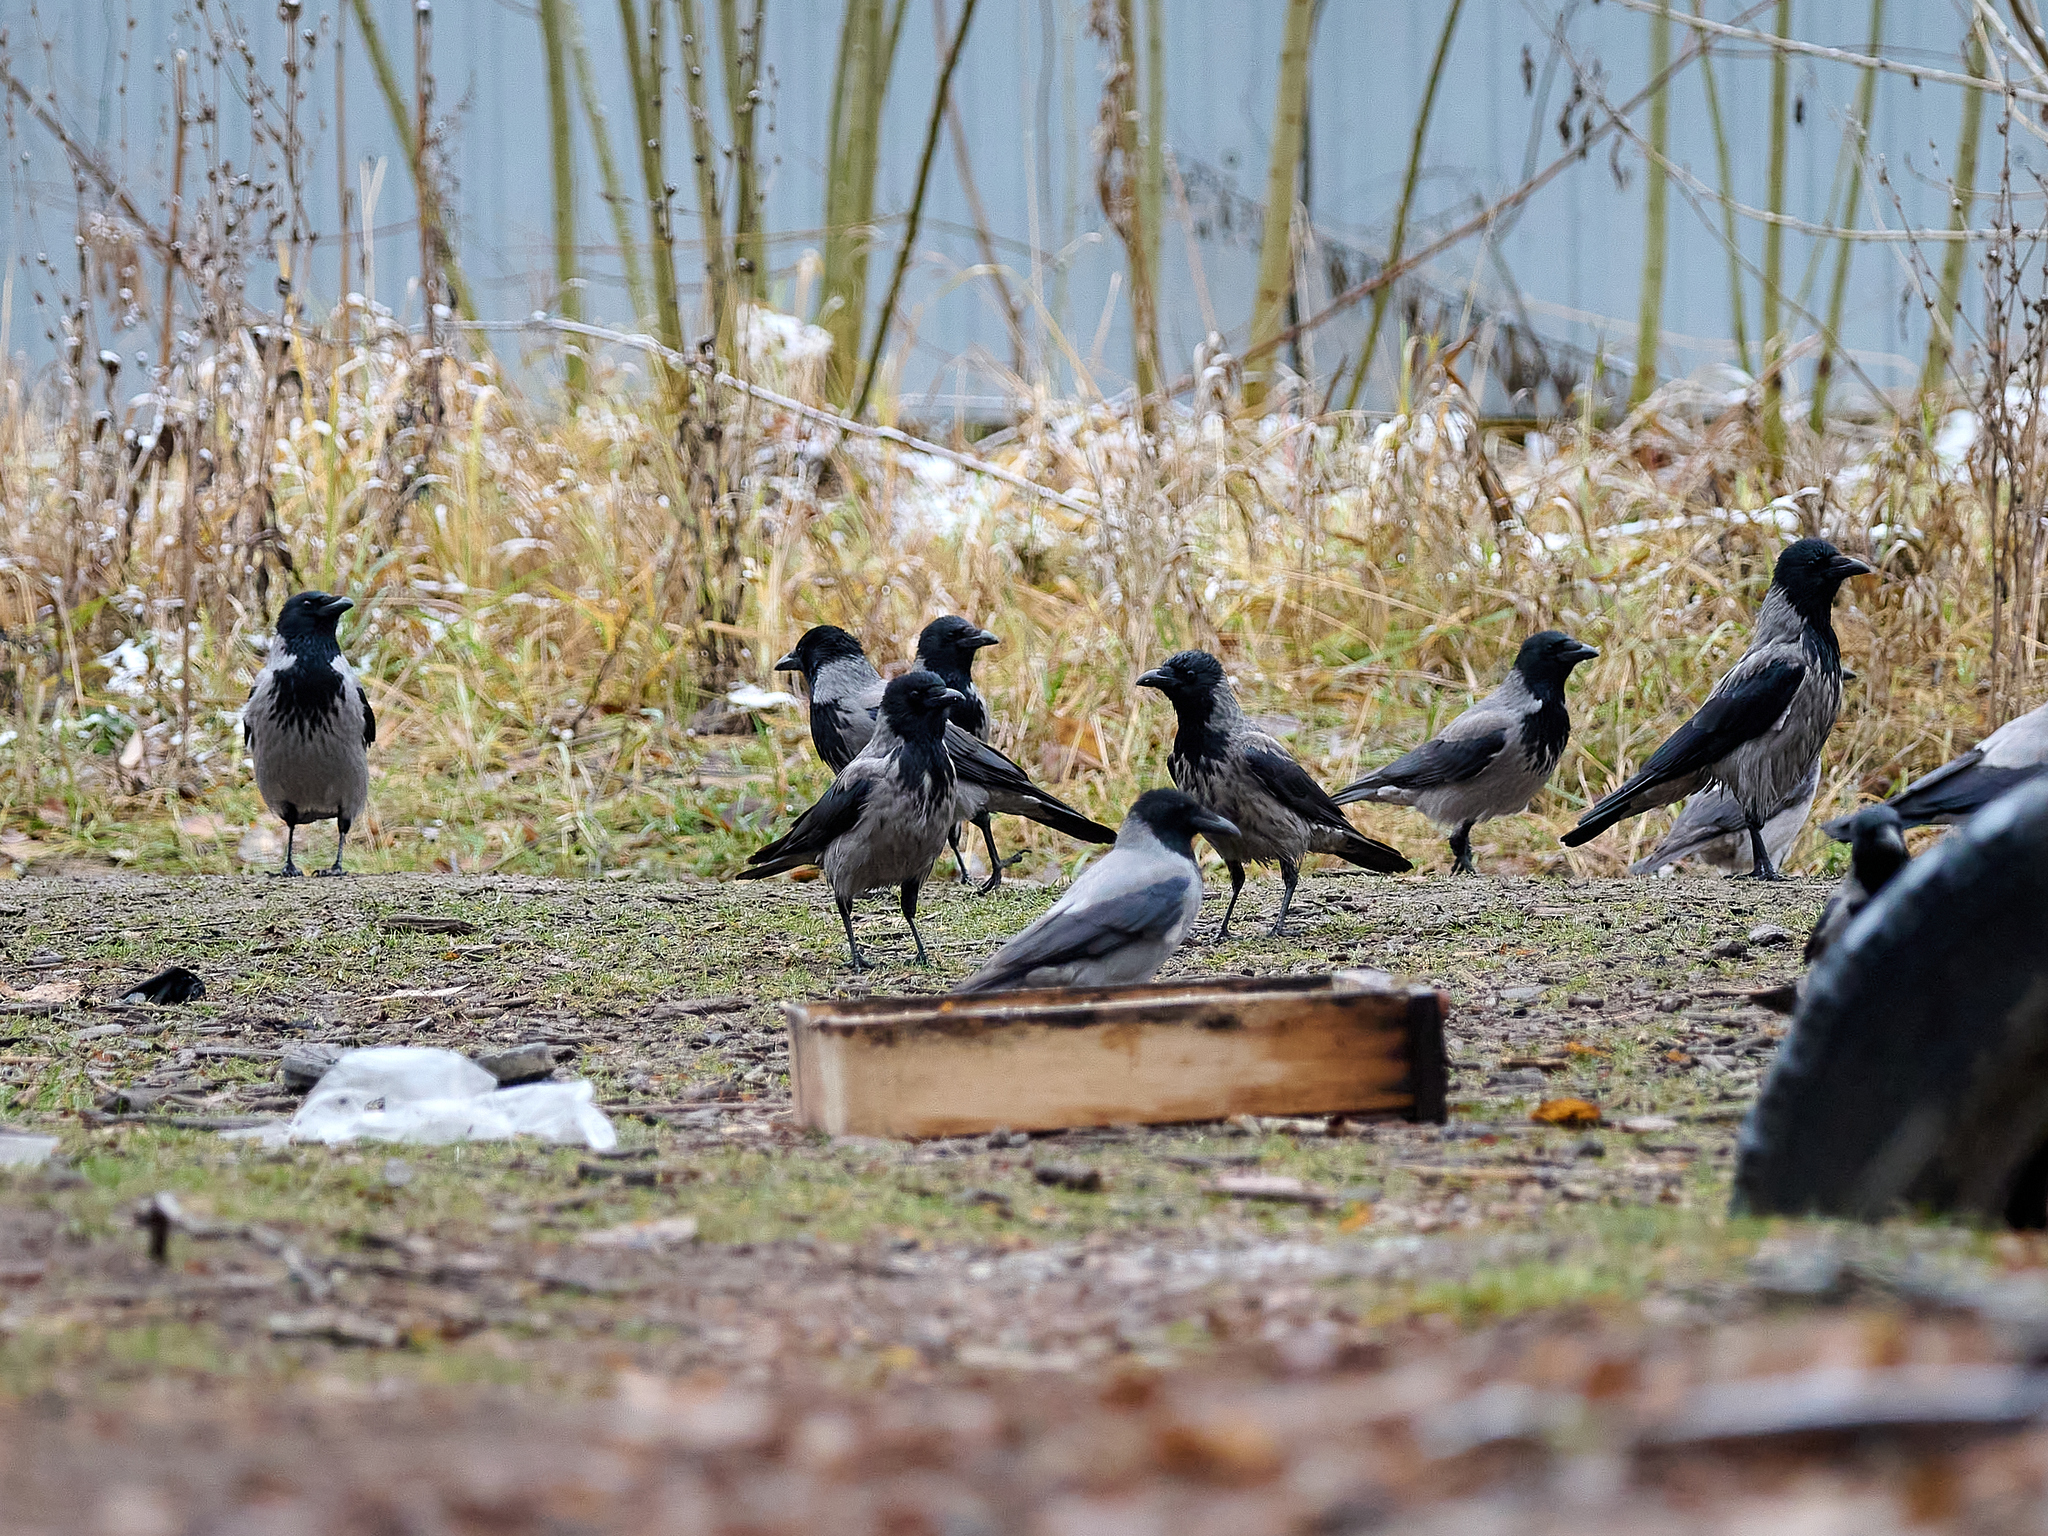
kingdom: Animalia
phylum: Chordata
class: Aves
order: Passeriformes
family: Corvidae
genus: Corvus
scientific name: Corvus cornix
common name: Hooded crow
